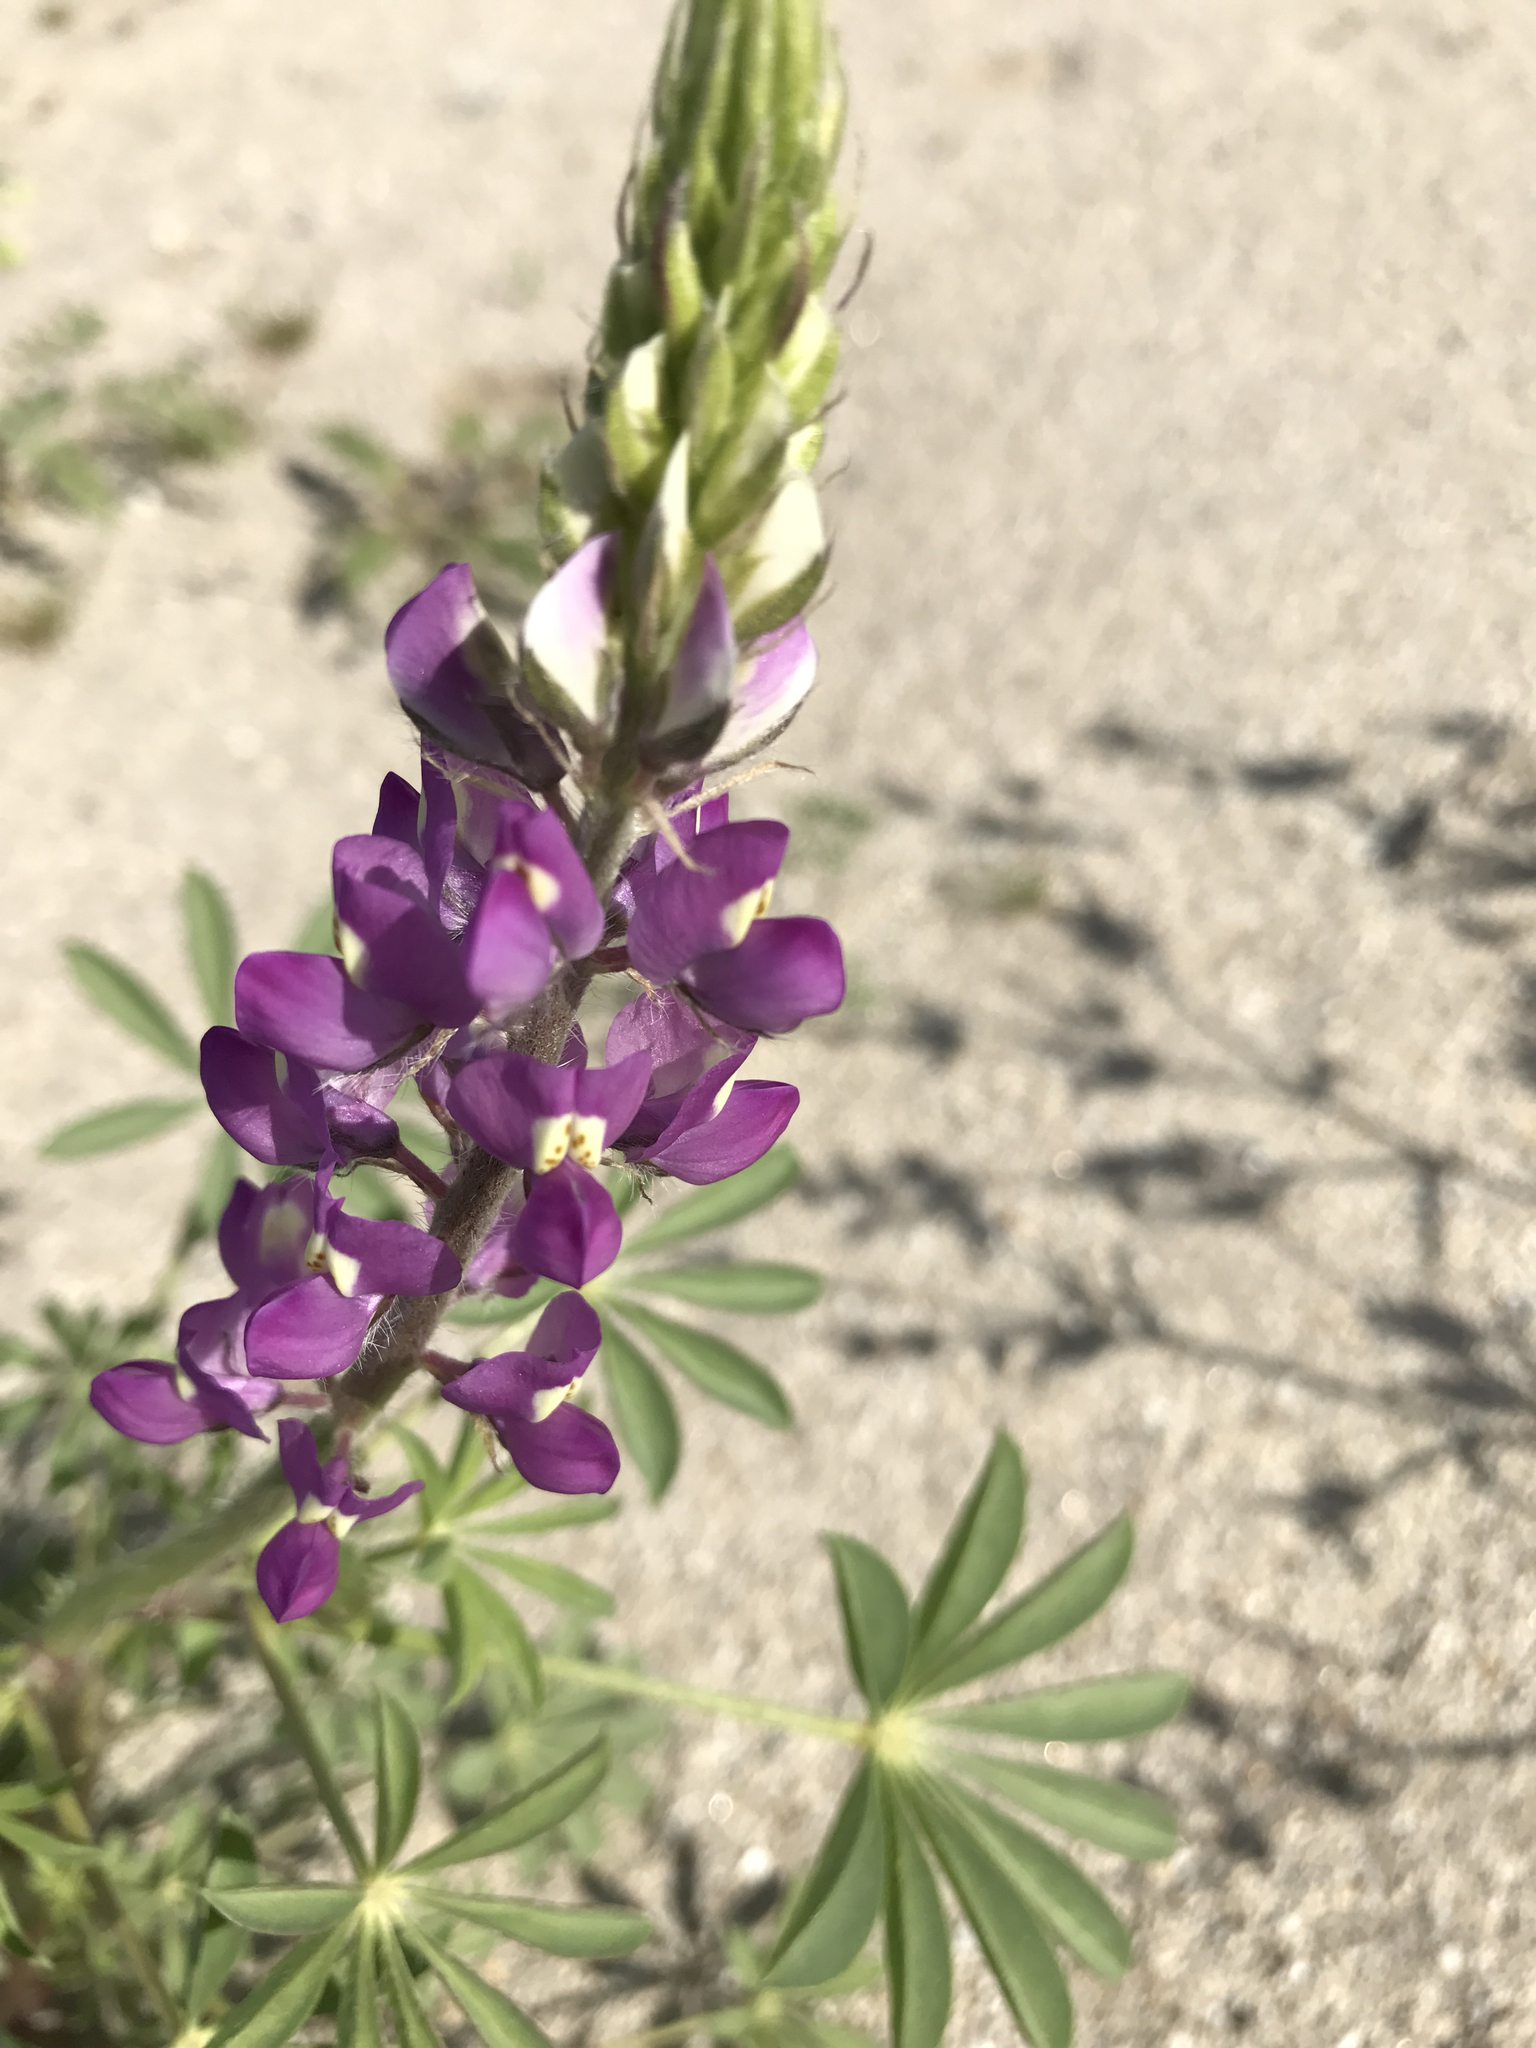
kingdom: Plantae
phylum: Tracheophyta
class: Magnoliopsida
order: Fabales
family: Fabaceae
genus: Lupinus
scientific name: Lupinus arizonicus
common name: Arizona lupine
